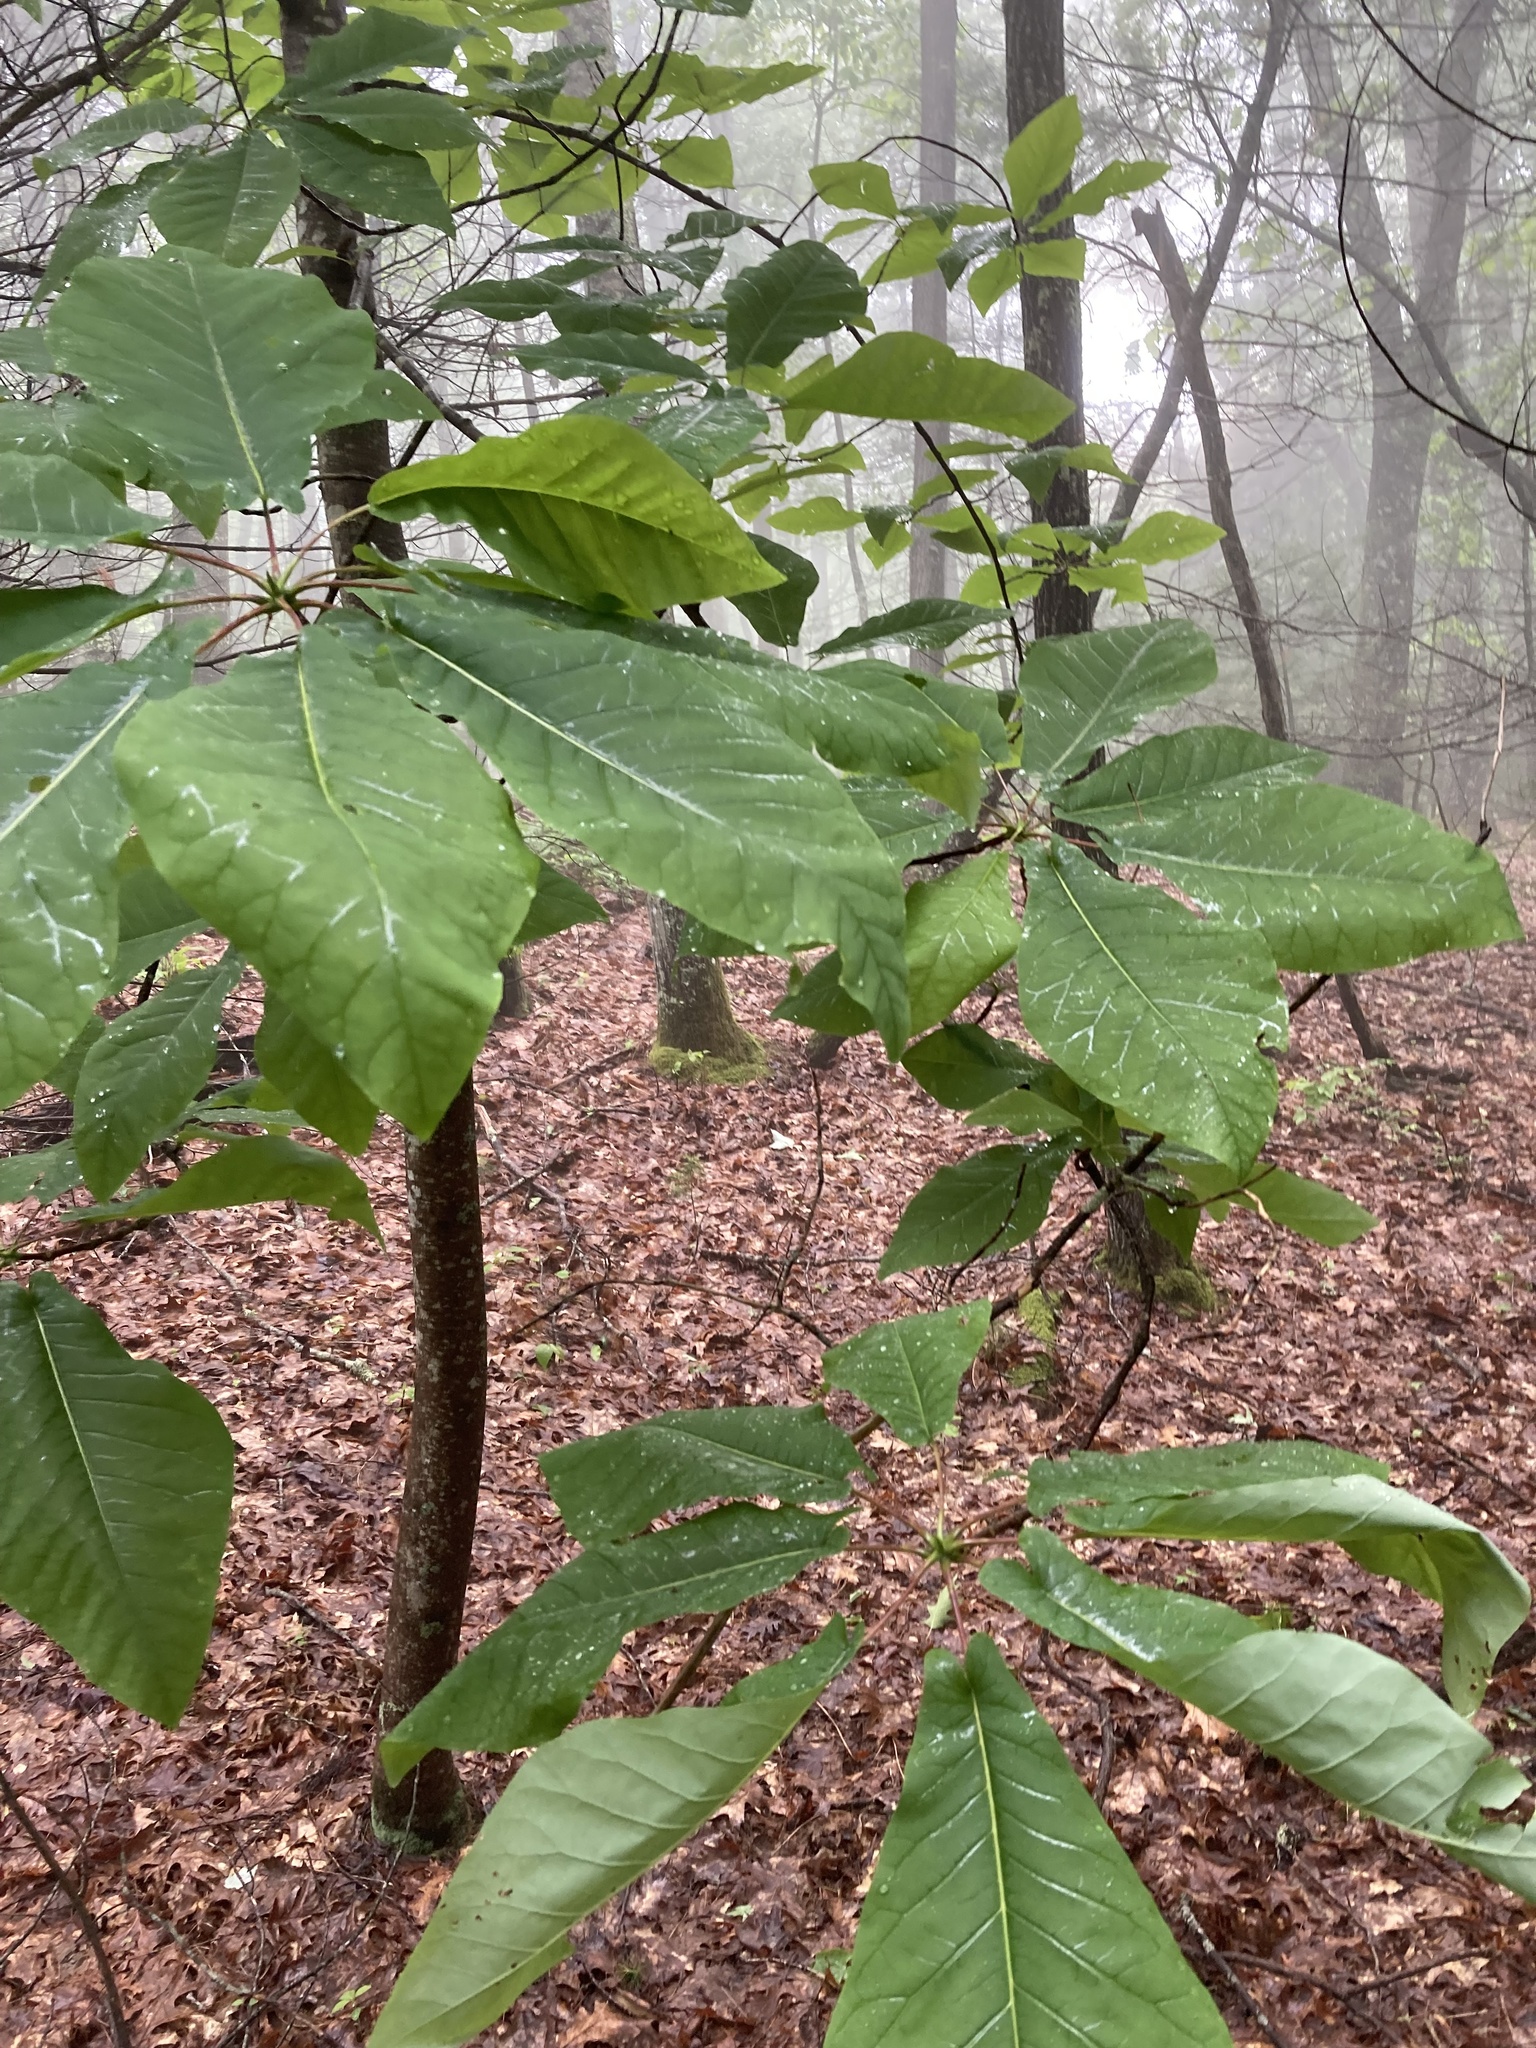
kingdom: Plantae
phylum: Tracheophyta
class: Magnoliopsida
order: Magnoliales
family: Magnoliaceae
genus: Magnolia
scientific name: Magnolia fraseri
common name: Fraser's magnolia
